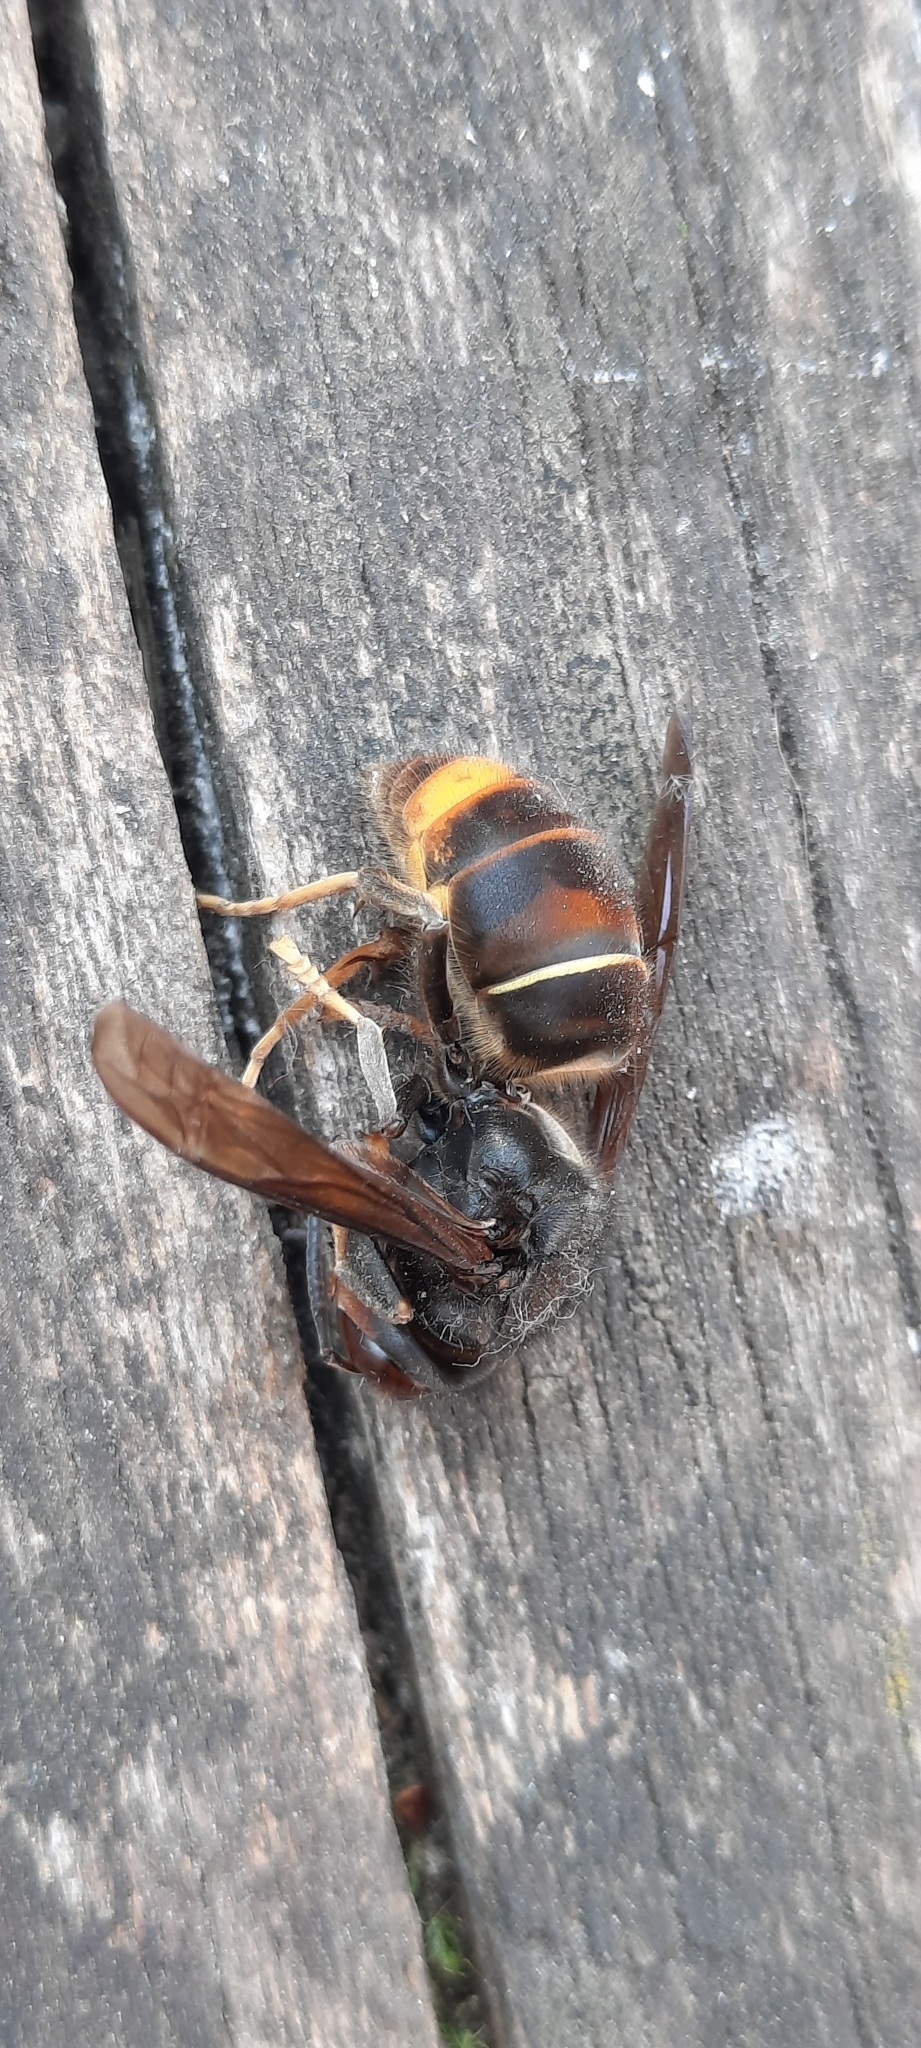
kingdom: Animalia
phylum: Arthropoda
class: Insecta
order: Hymenoptera
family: Vespidae
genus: Vespa
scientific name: Vespa velutina
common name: Asian hornet
